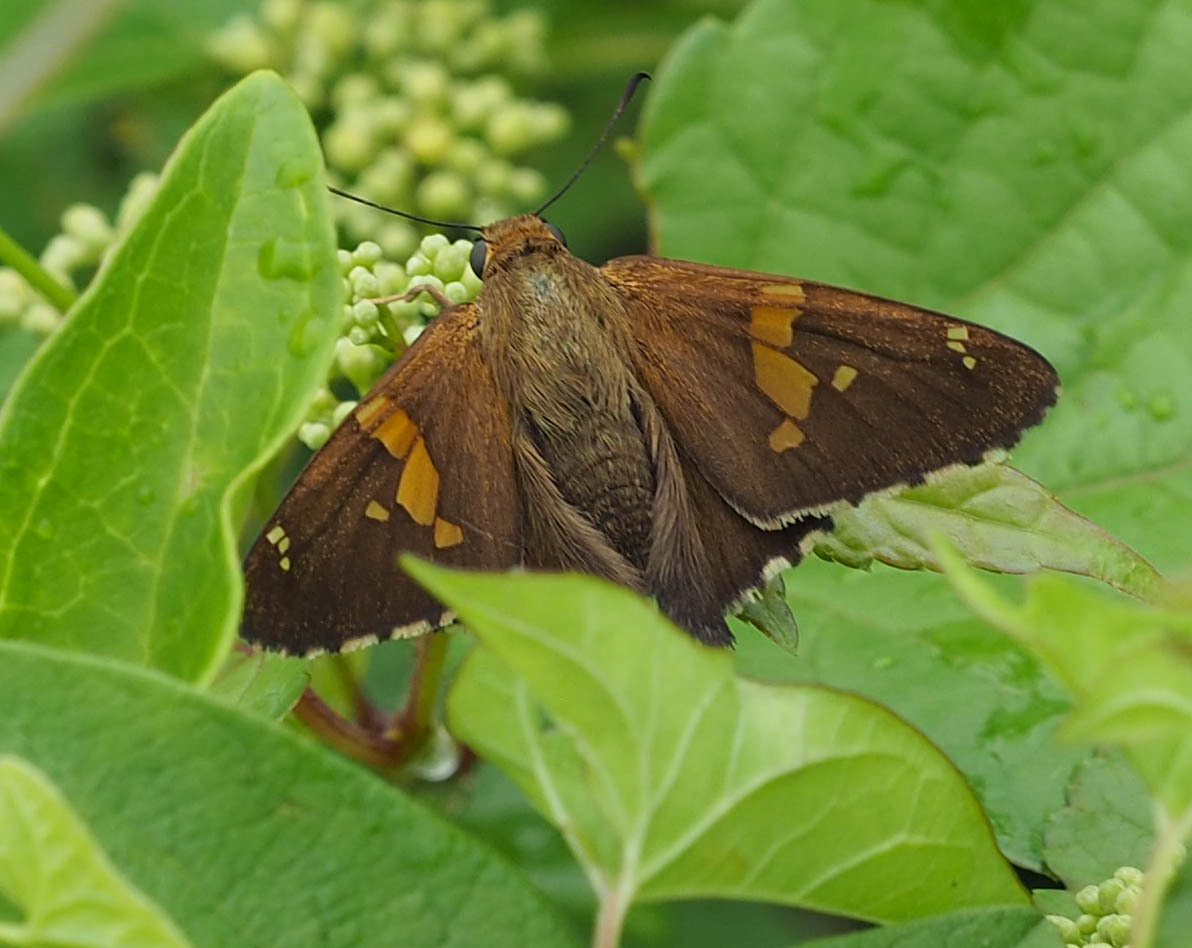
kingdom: Animalia
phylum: Arthropoda
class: Insecta
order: Lepidoptera
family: Hesperiidae
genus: Epargyreus
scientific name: Epargyreus clarus
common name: Silver-spotted skipper
